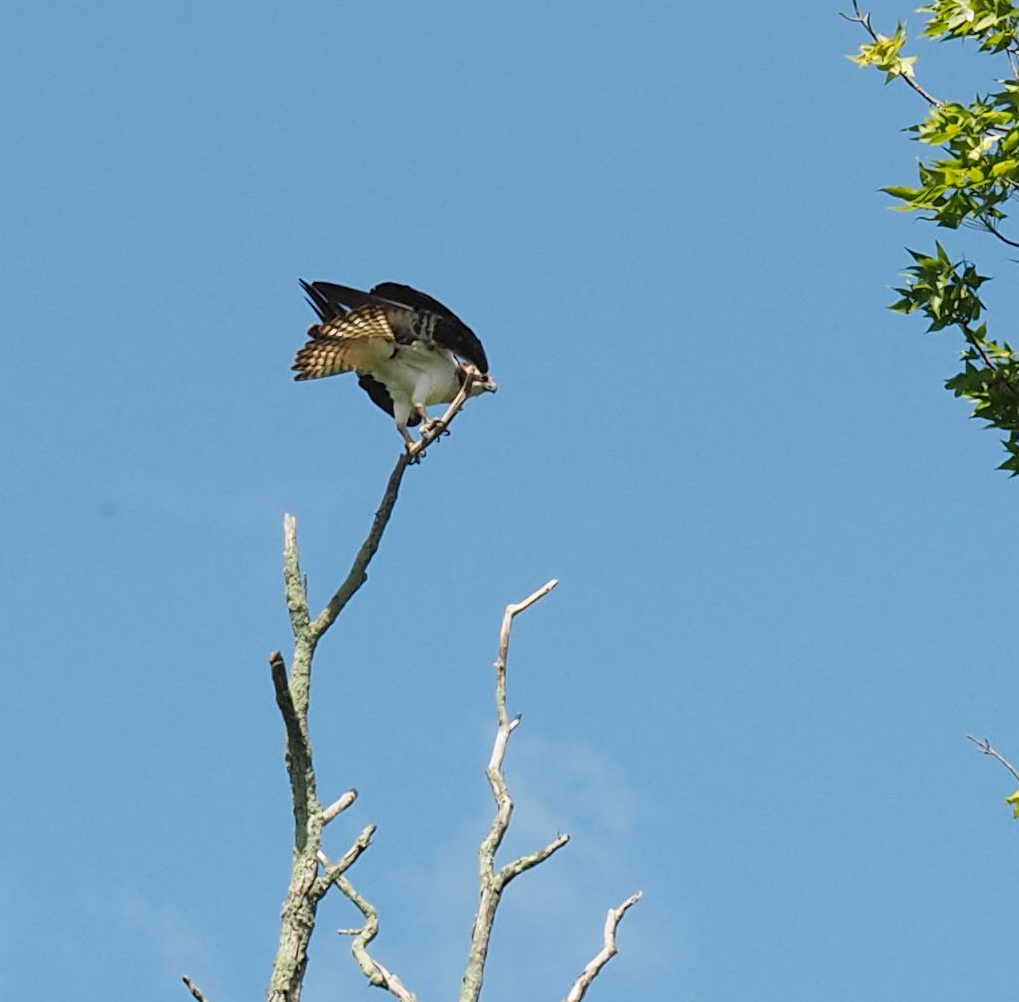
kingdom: Animalia
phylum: Chordata
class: Aves
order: Accipitriformes
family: Pandionidae
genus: Pandion
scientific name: Pandion haliaetus
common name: Osprey
